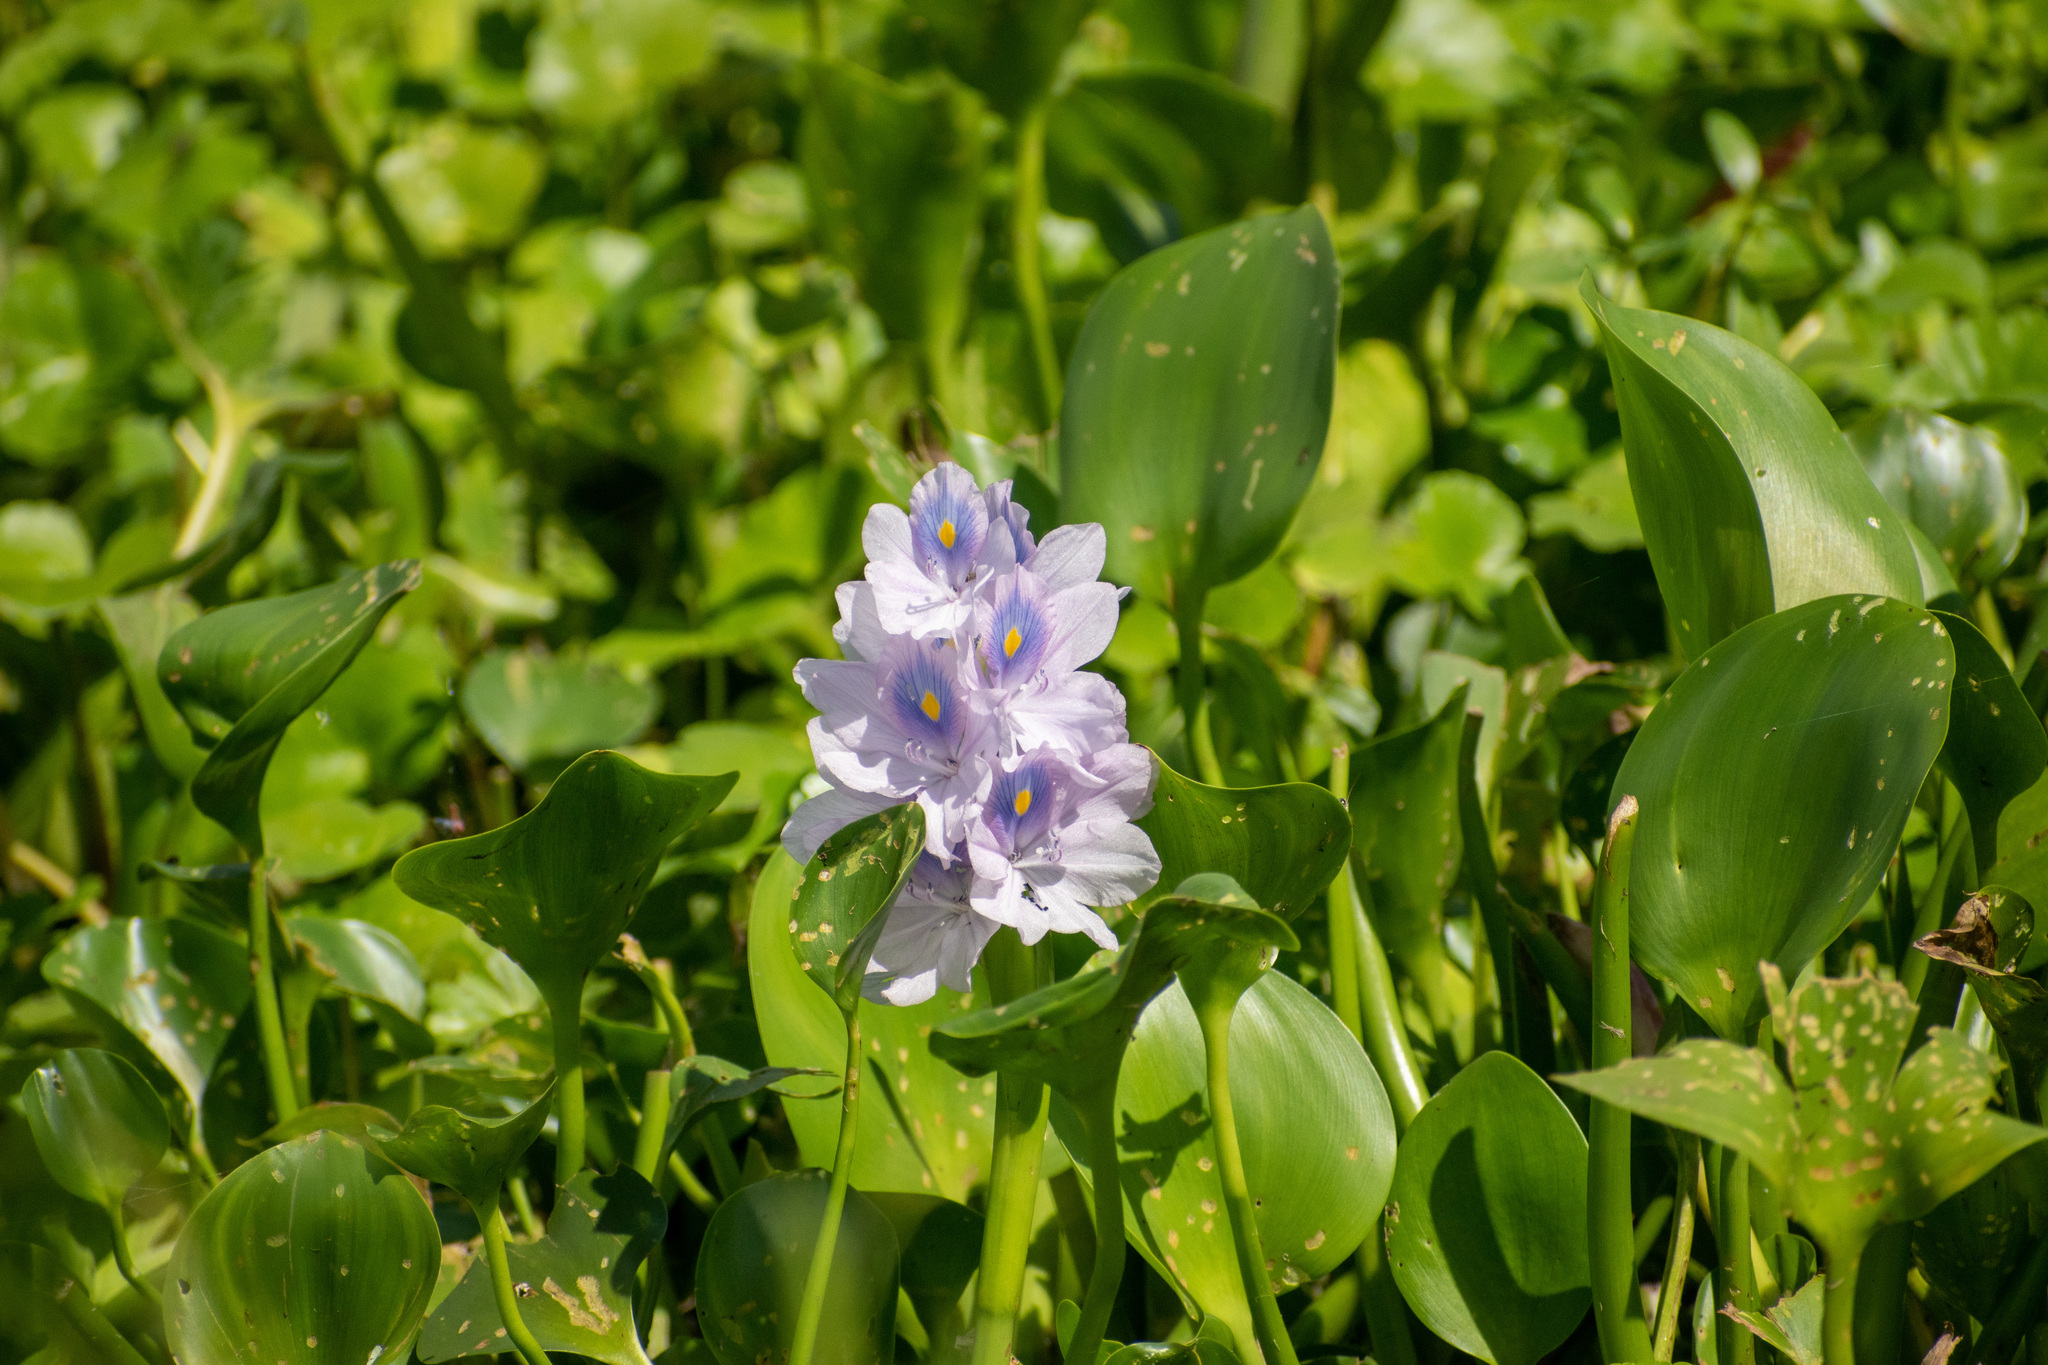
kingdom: Plantae
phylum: Tracheophyta
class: Liliopsida
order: Commelinales
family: Pontederiaceae
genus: Pontederia
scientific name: Pontederia crassipes
